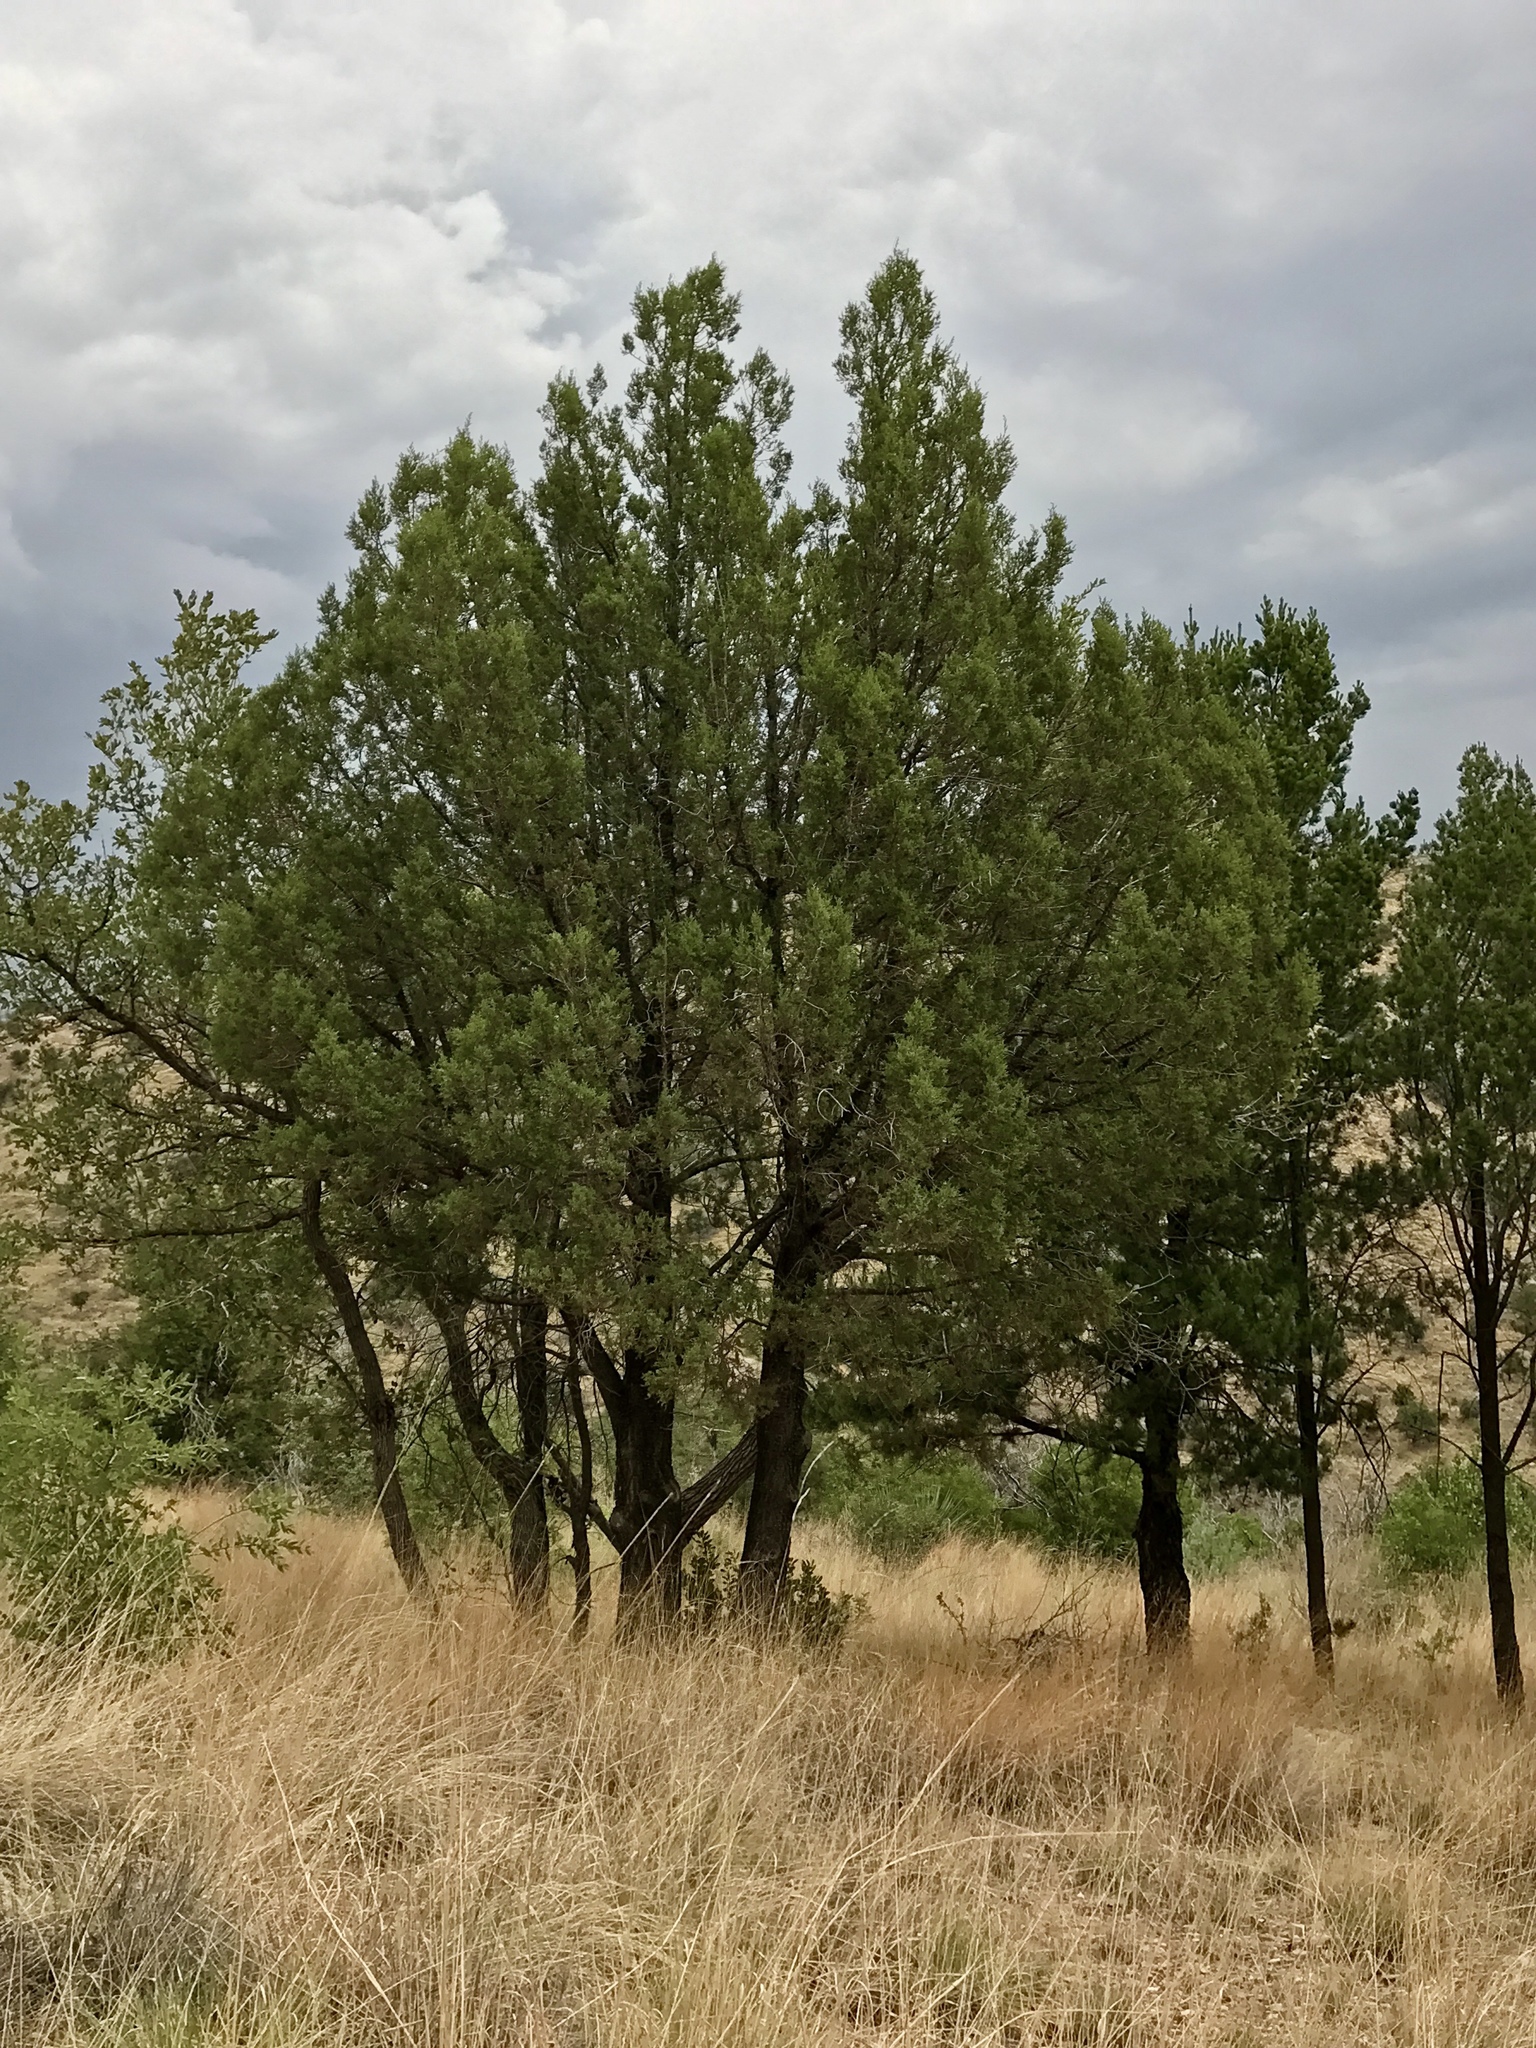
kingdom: Plantae
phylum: Tracheophyta
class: Pinopsida
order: Pinales
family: Cupressaceae
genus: Juniperus
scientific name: Juniperus deppeana
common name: Alligator juniper
